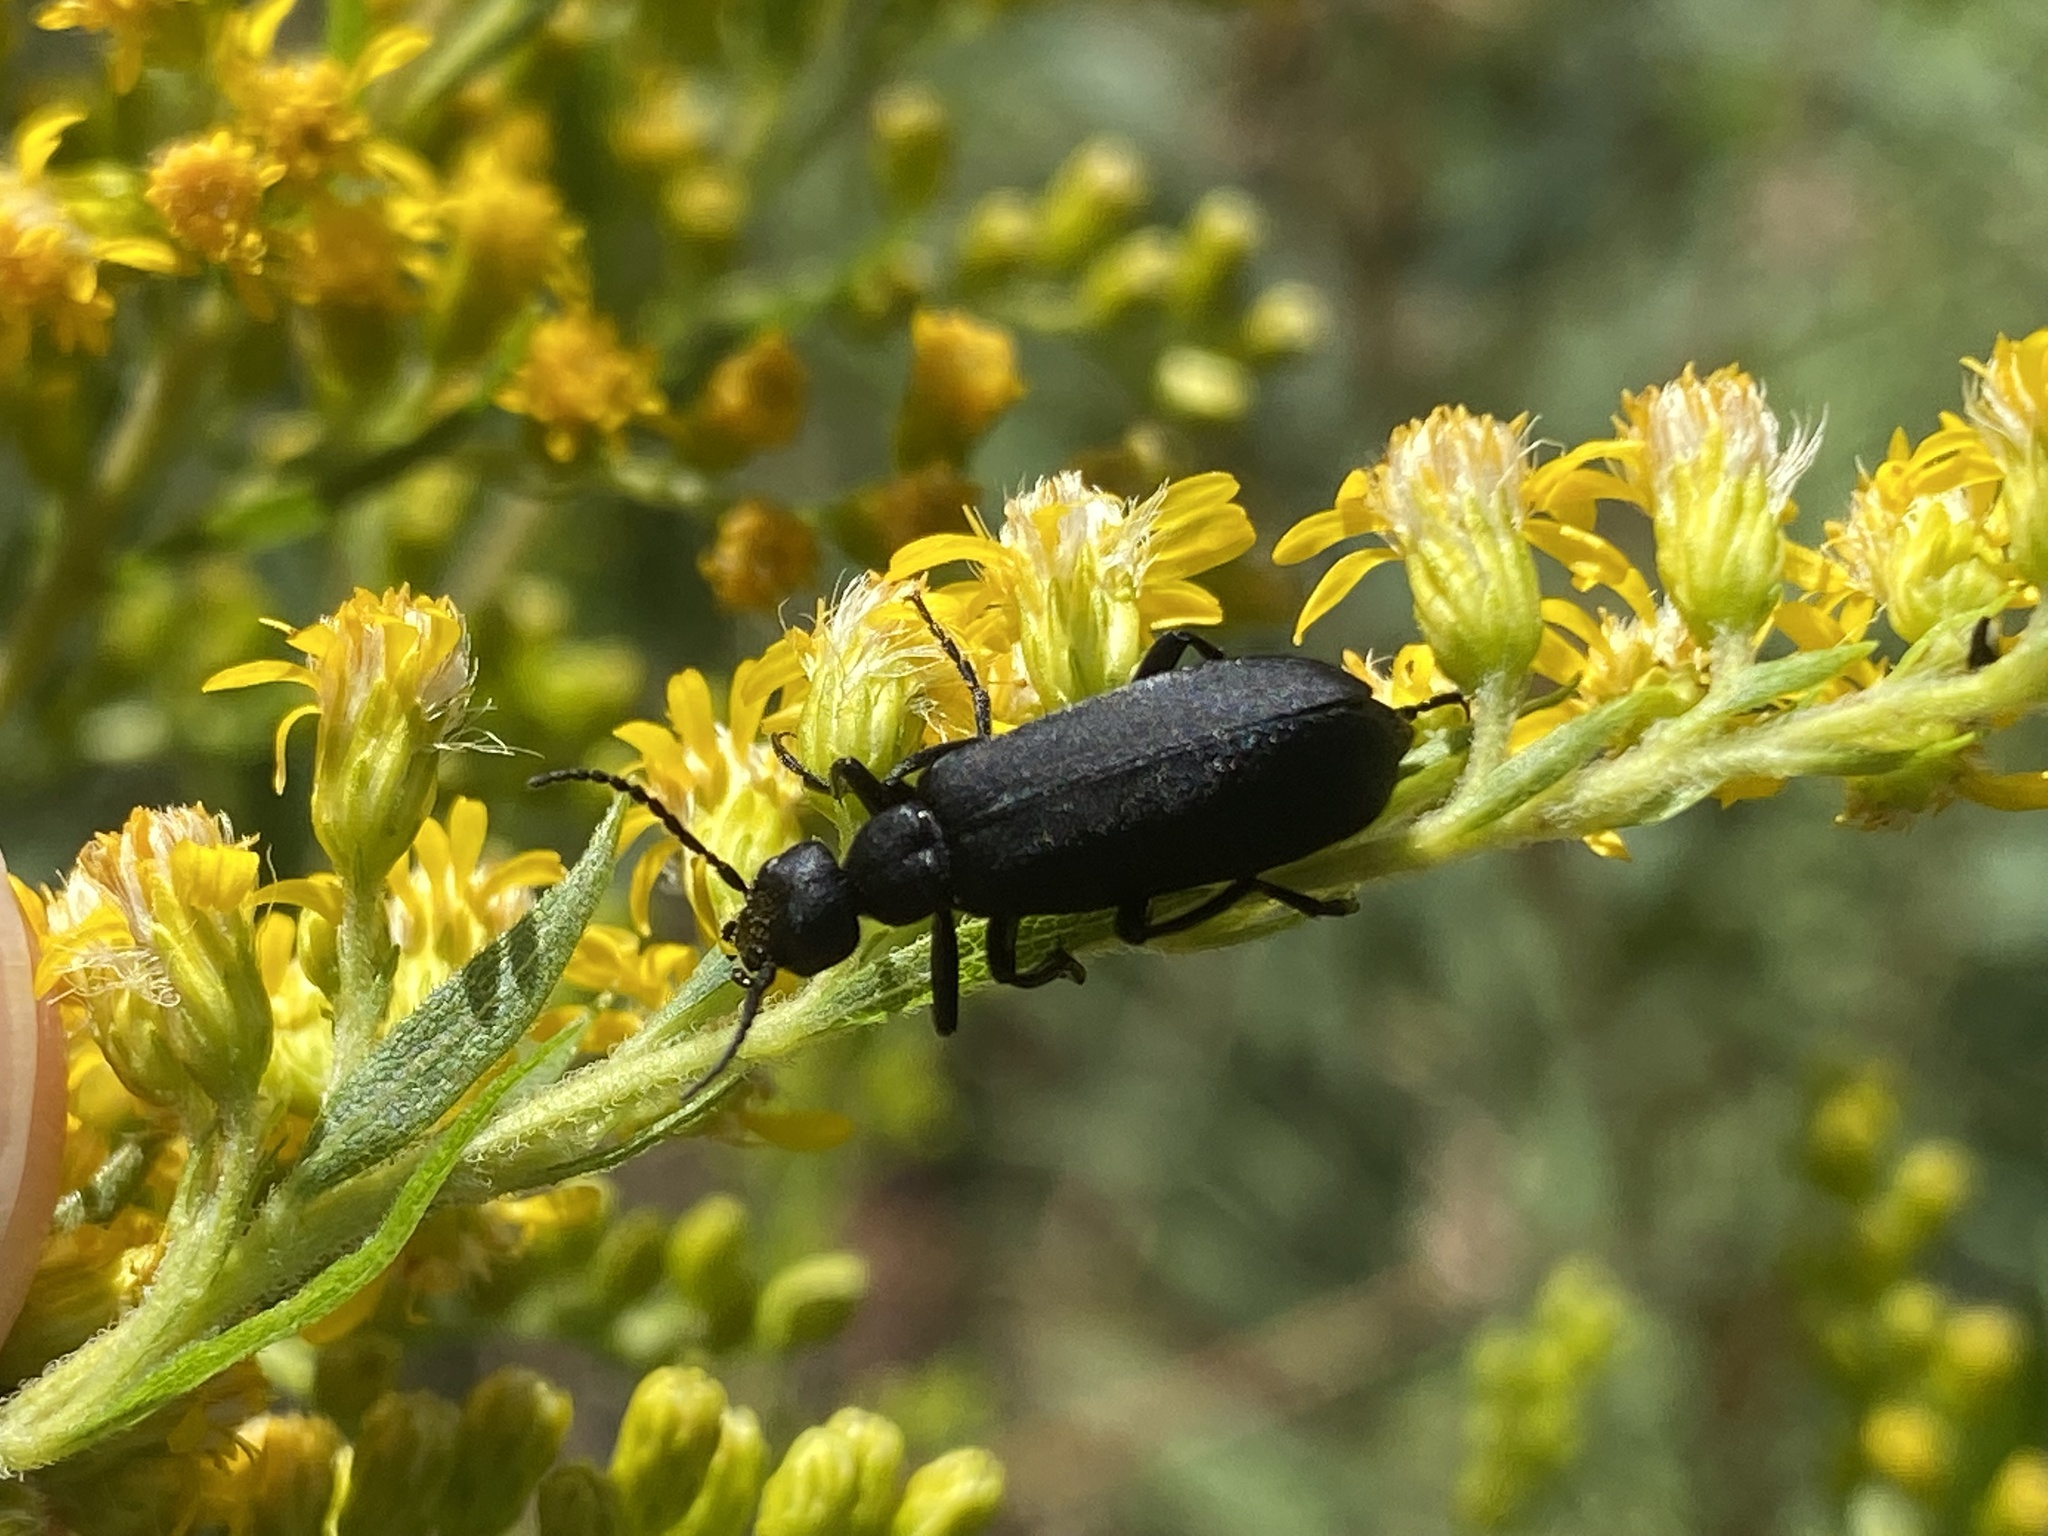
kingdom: Animalia
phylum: Arthropoda
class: Insecta
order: Coleoptera
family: Meloidae
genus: Epicauta
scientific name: Epicauta pensylvanica
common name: Black blister beetle
